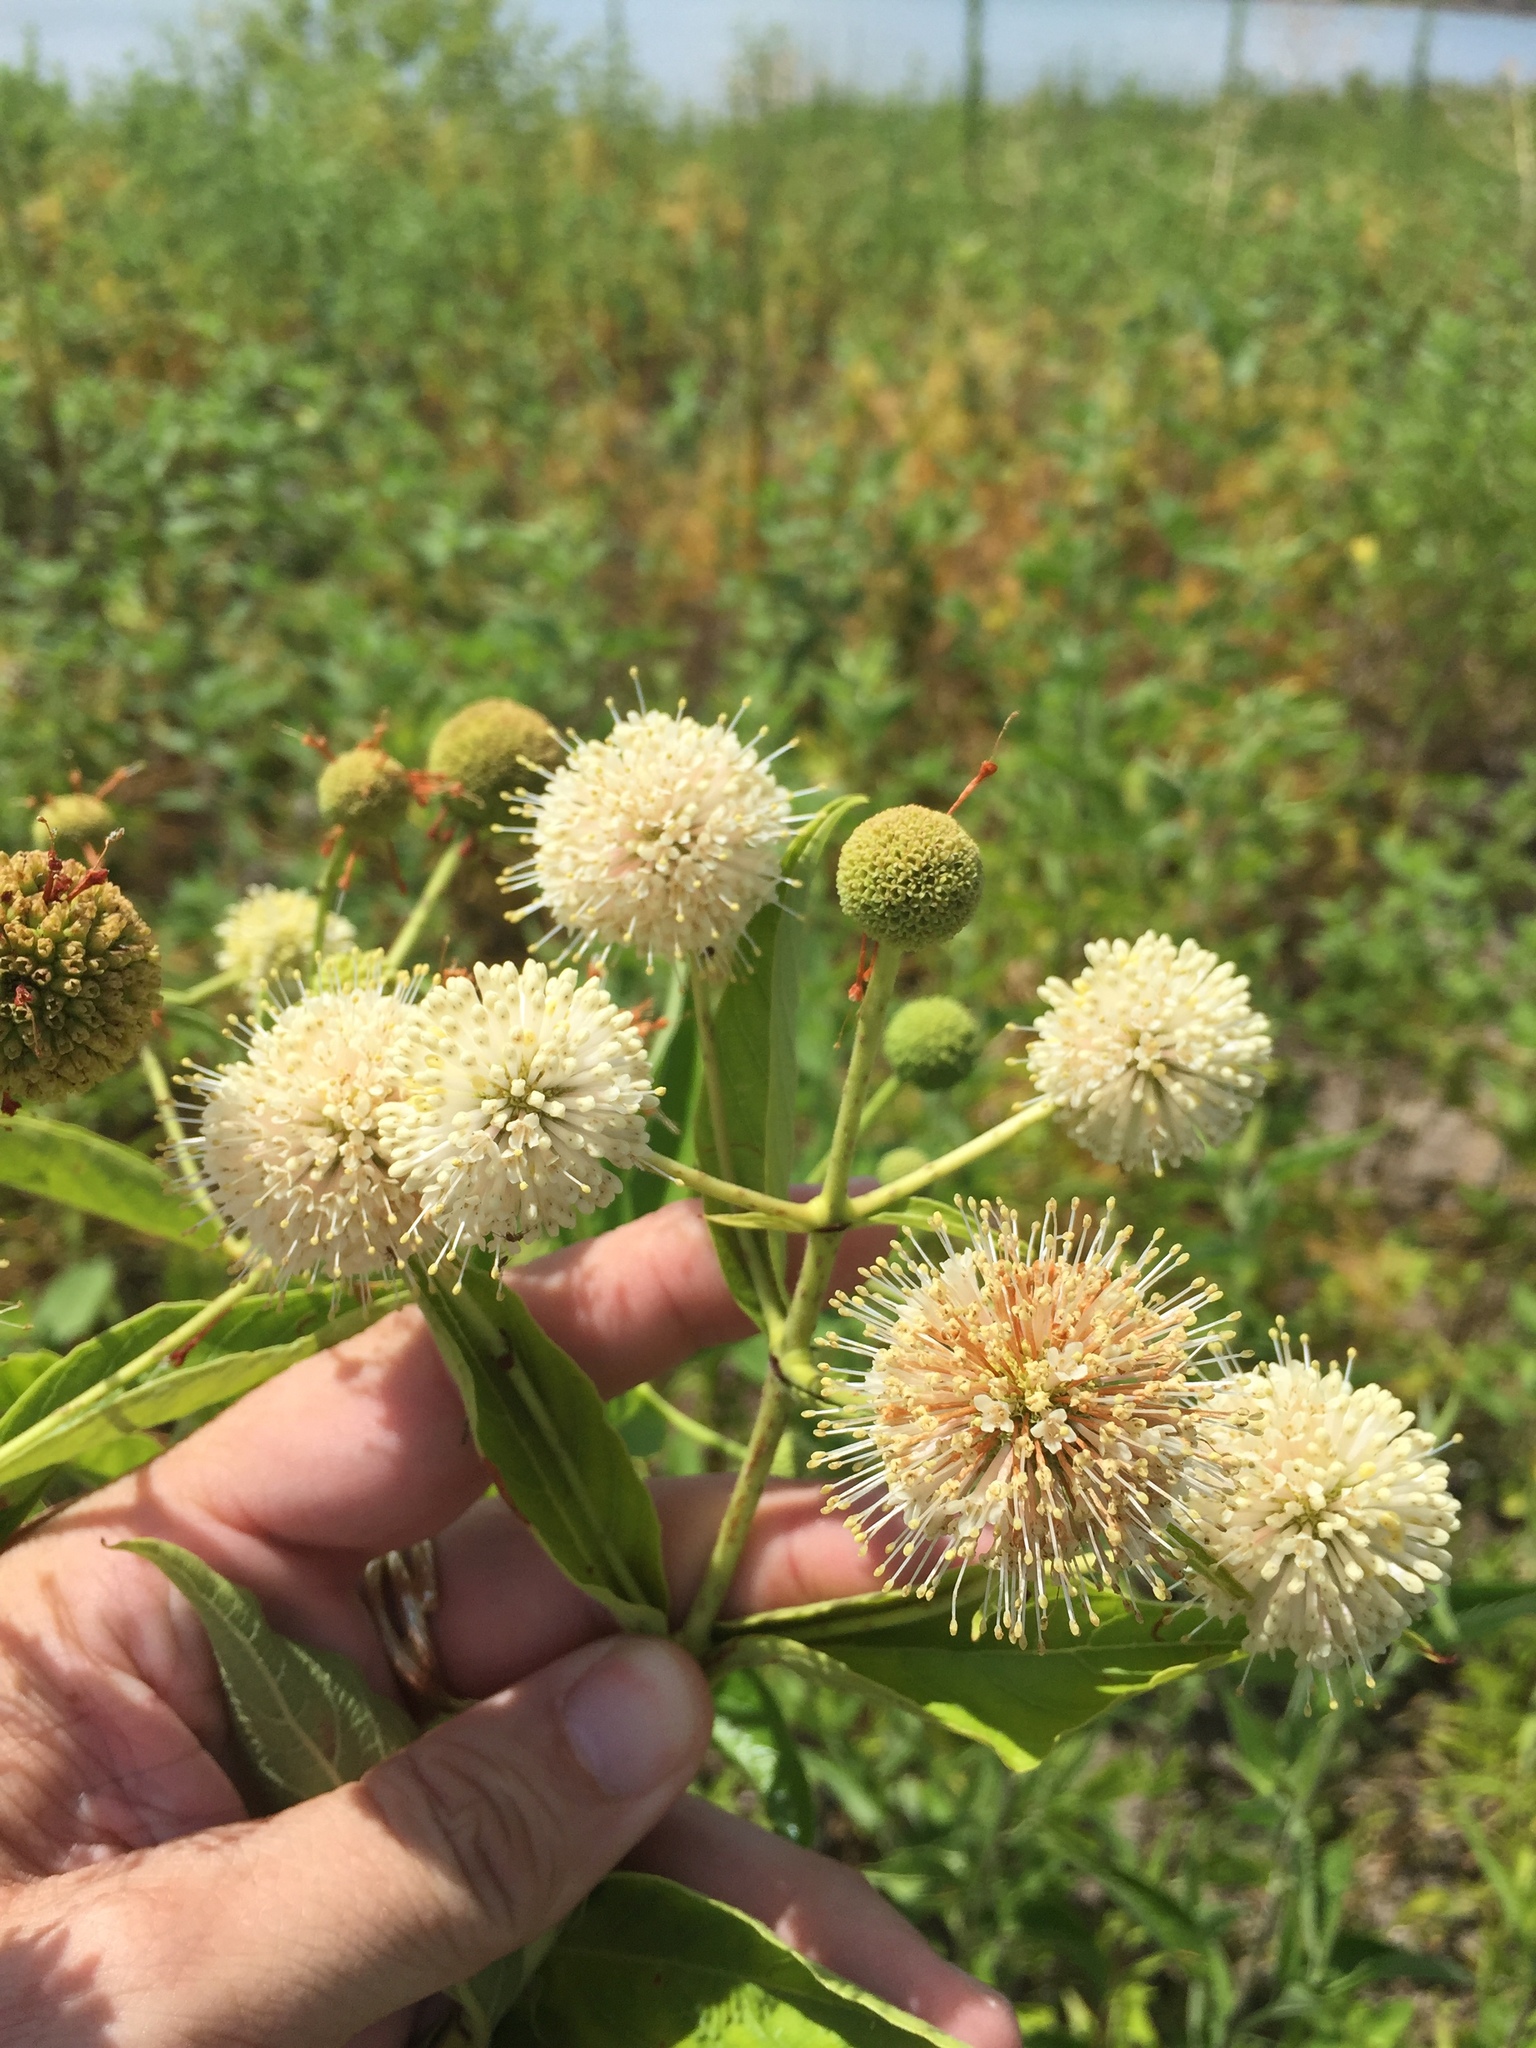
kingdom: Plantae
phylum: Tracheophyta
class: Magnoliopsida
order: Gentianales
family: Rubiaceae
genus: Cephalanthus
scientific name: Cephalanthus occidentalis
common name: Button-willow
